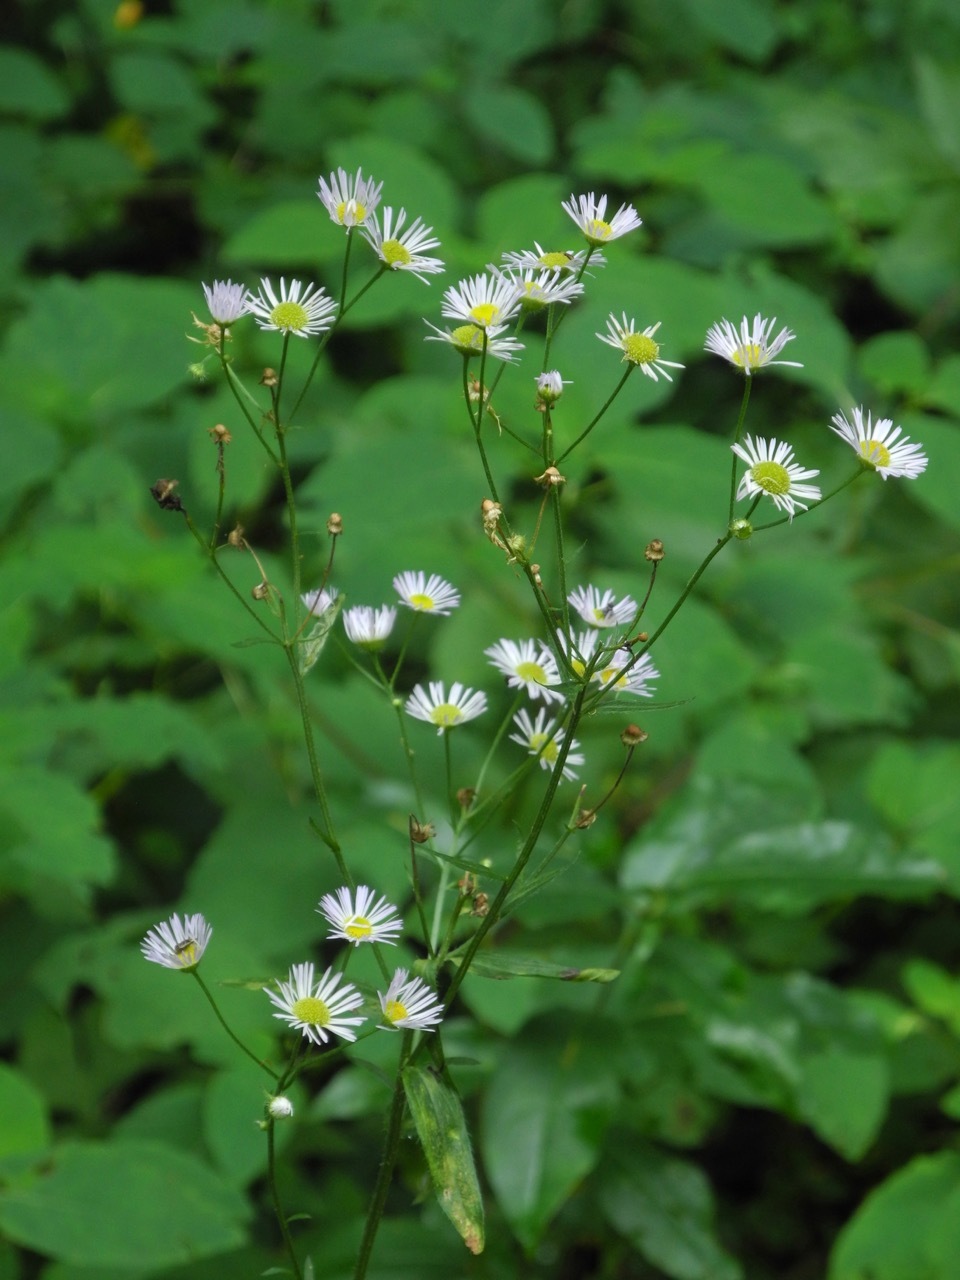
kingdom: Plantae
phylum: Tracheophyta
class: Magnoliopsida
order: Asterales
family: Asteraceae
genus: Erigeron
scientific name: Erigeron annuus
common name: Tall fleabane
